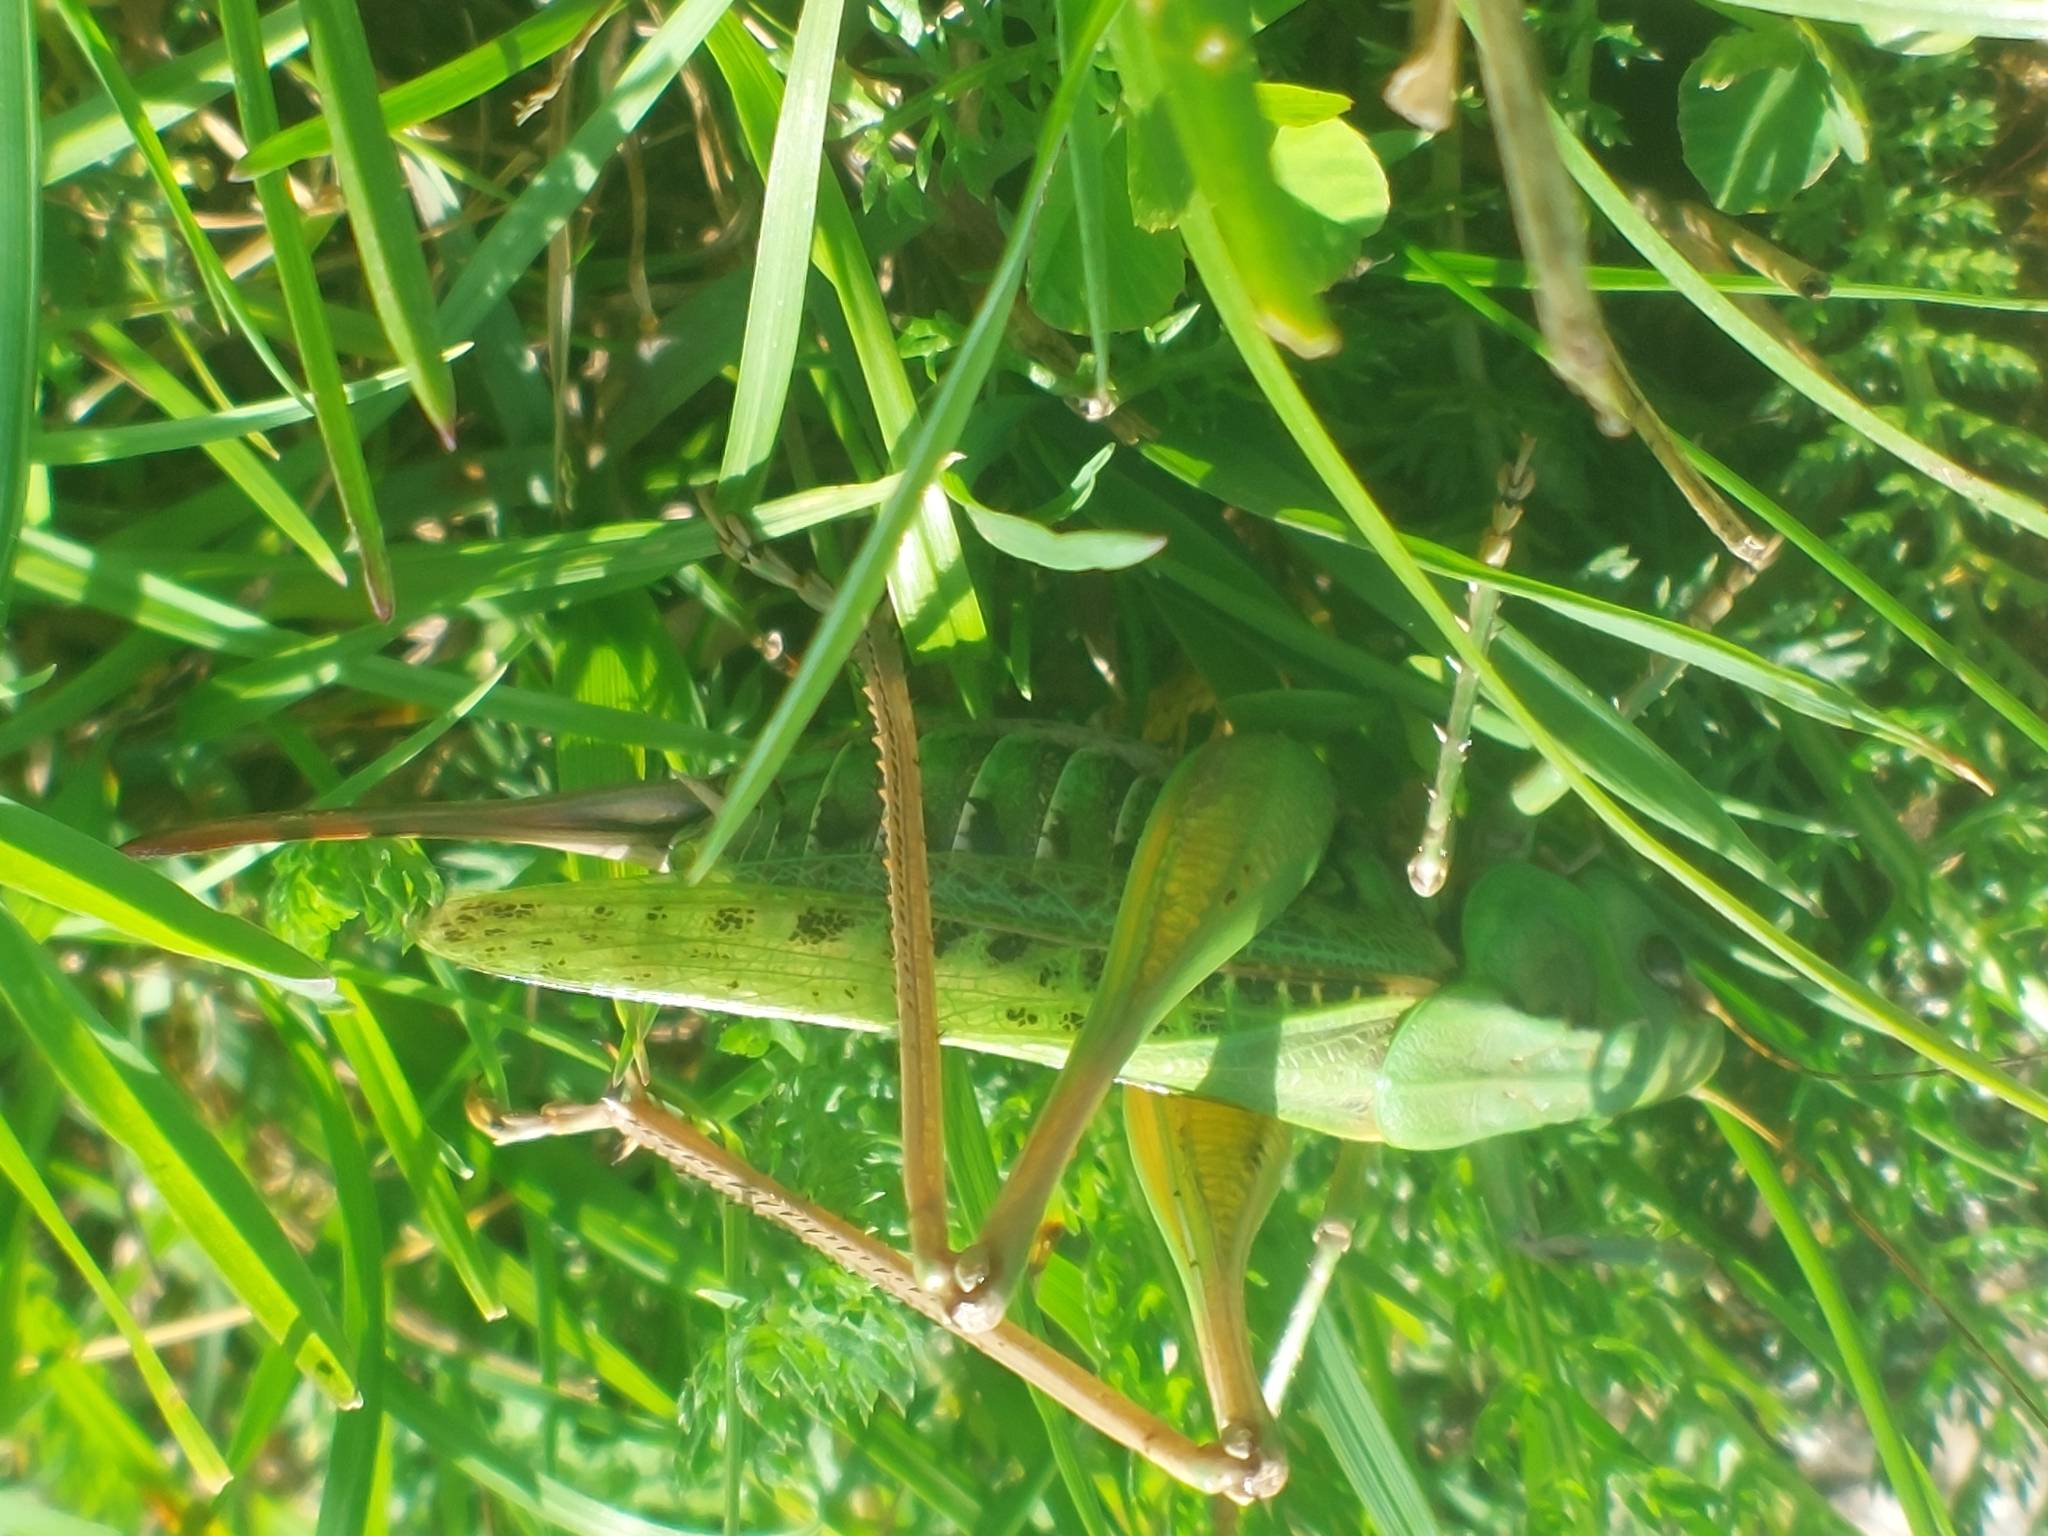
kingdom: Animalia
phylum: Arthropoda
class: Insecta
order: Orthoptera
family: Tettigoniidae
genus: Decticus
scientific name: Decticus verrucivorus
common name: Wart-biter
